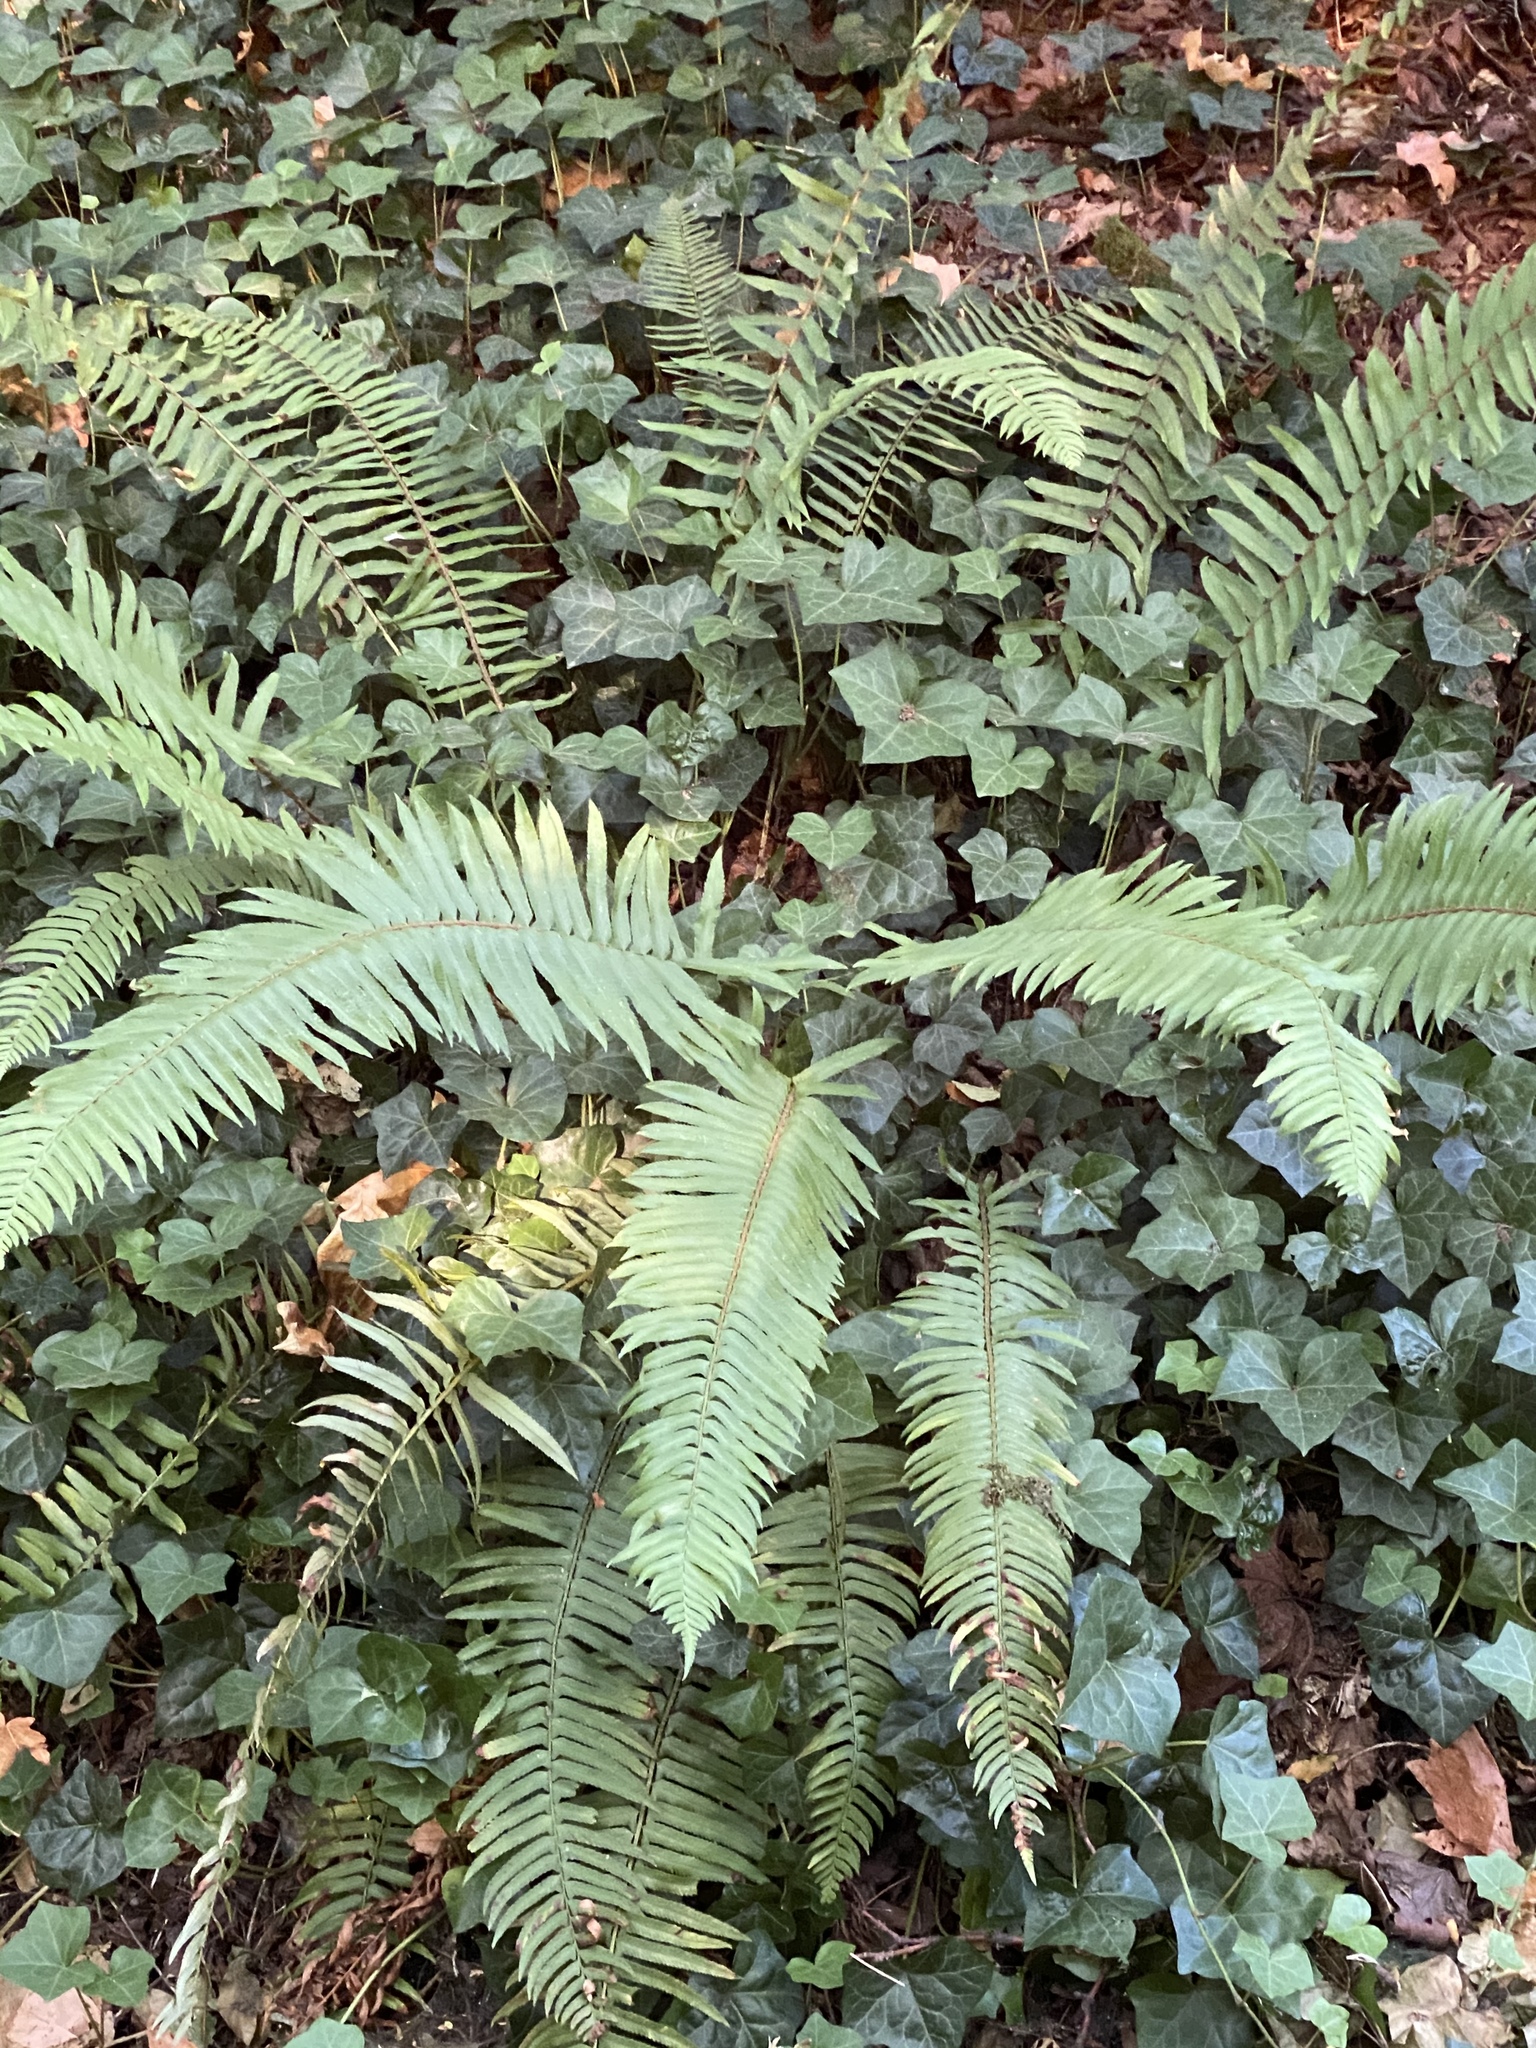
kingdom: Plantae
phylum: Tracheophyta
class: Polypodiopsida
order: Polypodiales
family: Dryopteridaceae
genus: Polystichum
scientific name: Polystichum munitum
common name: Western sword-fern
